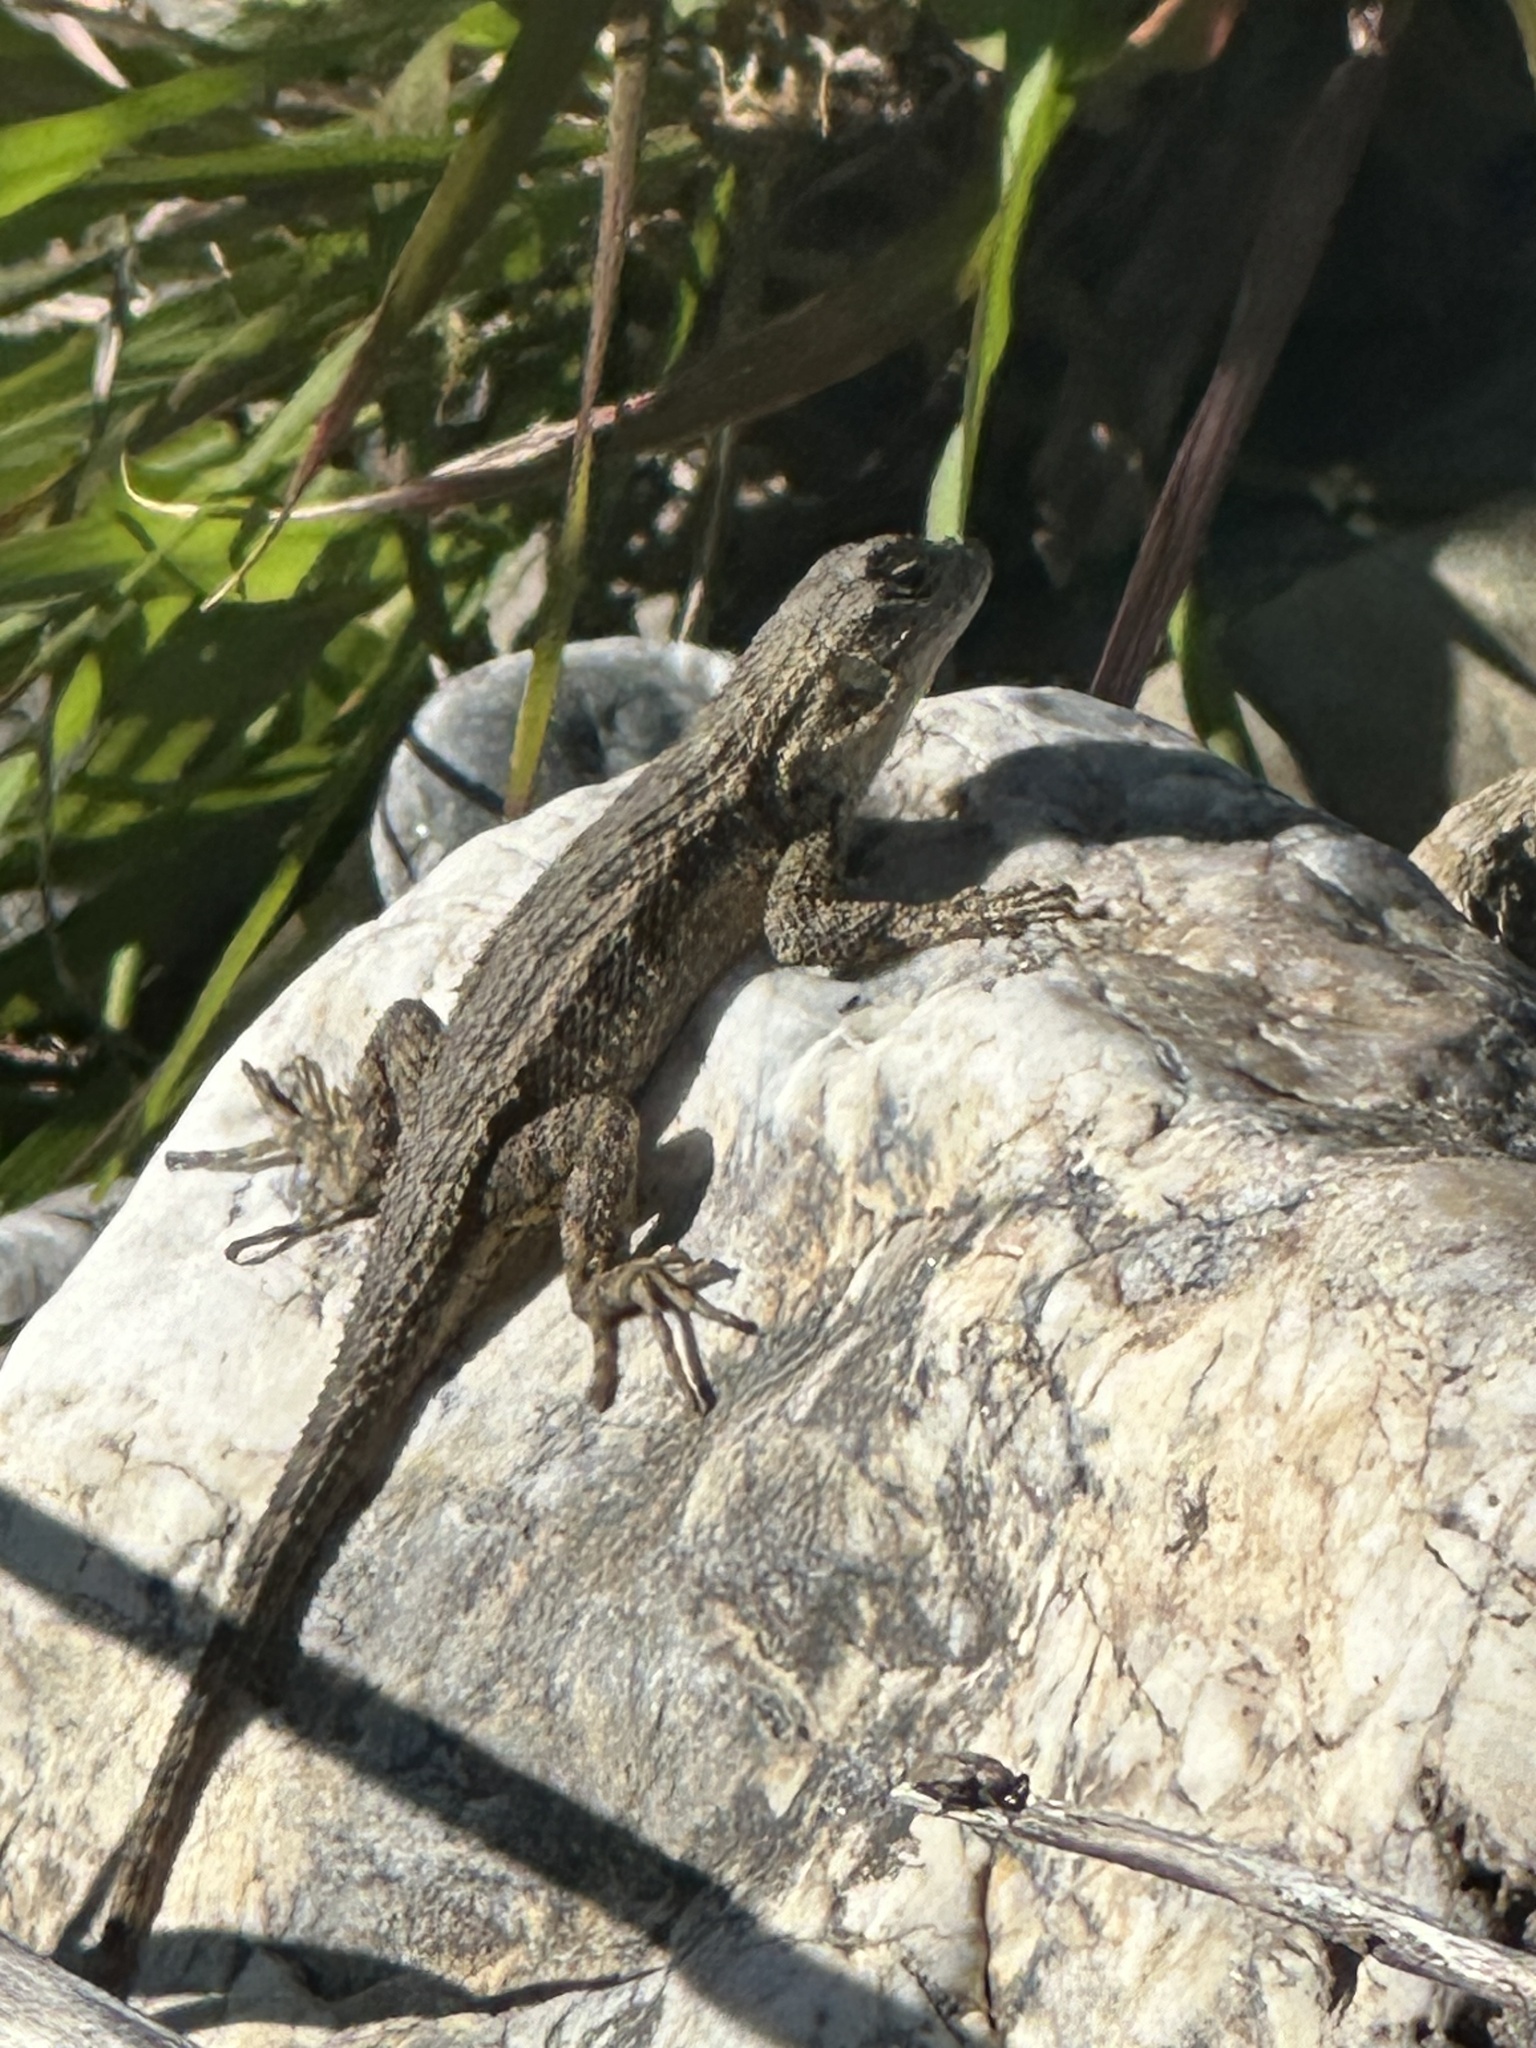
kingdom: Animalia
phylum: Chordata
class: Squamata
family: Phrynosomatidae
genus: Sceloporus
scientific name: Sceloporus occidentalis
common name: Western fence lizard
